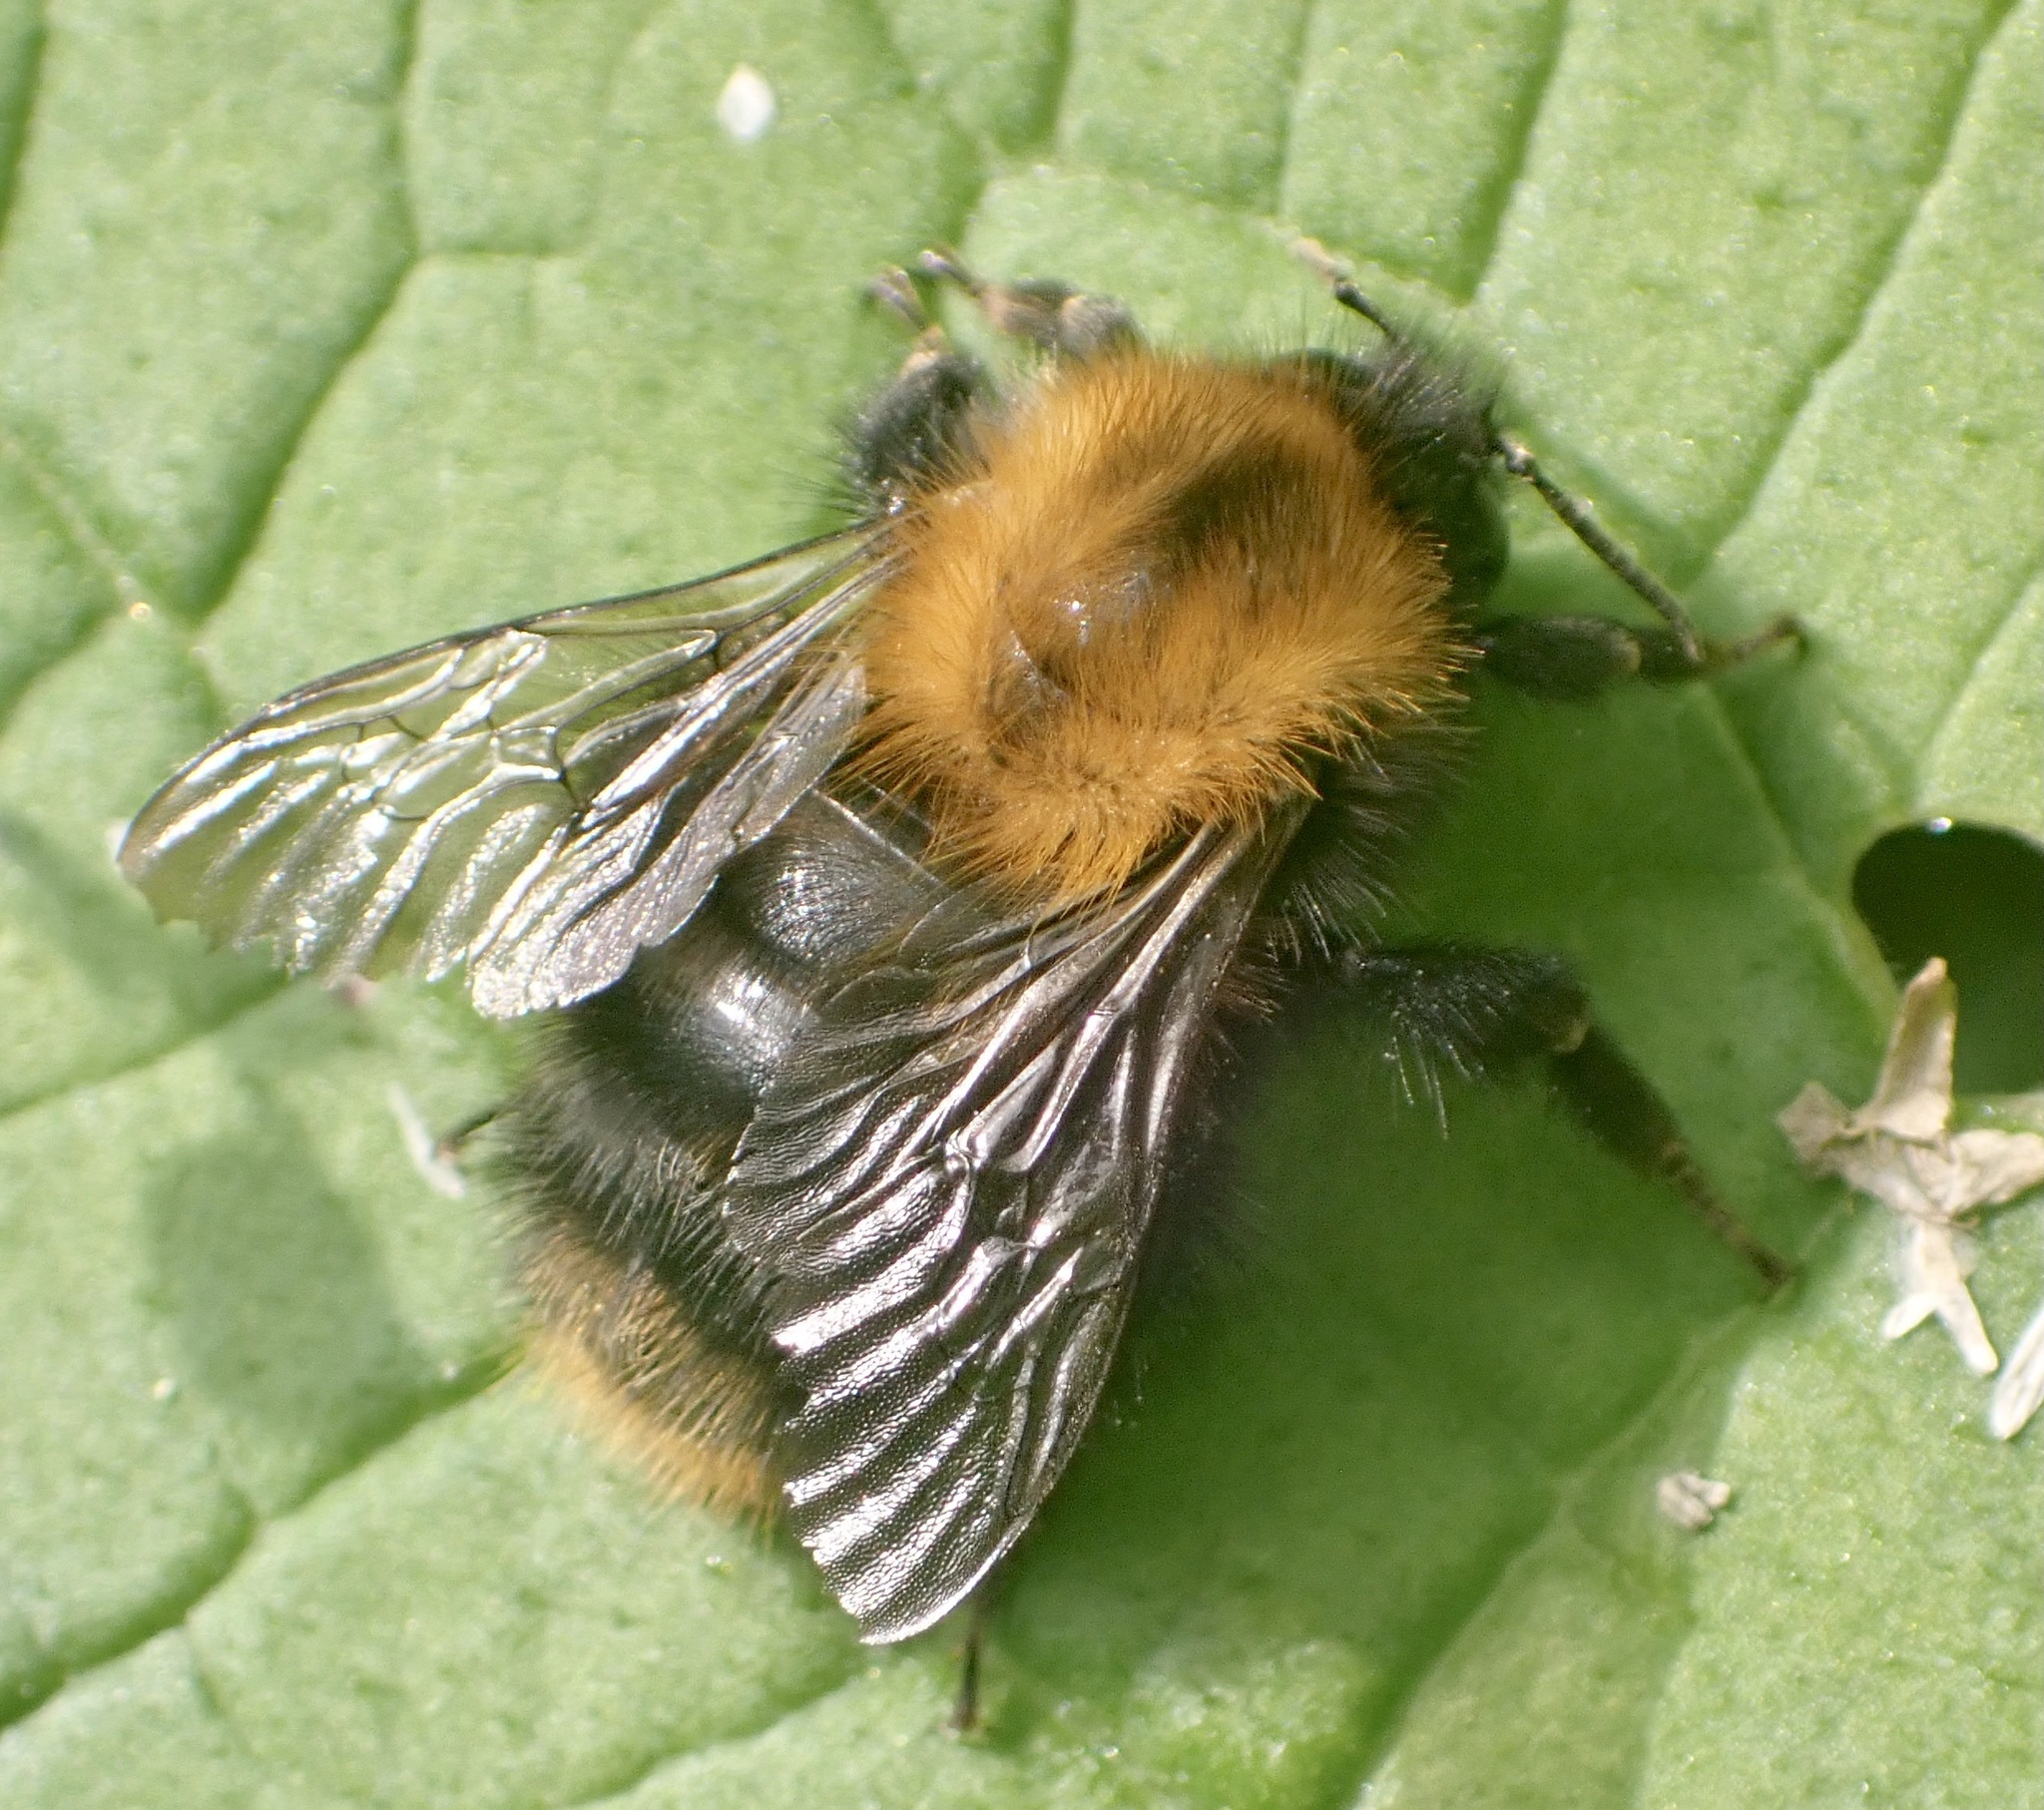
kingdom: Animalia
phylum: Arthropoda
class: Insecta
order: Hymenoptera
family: Apidae
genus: Bombus
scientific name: Bombus pascuorum
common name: Common carder bee
